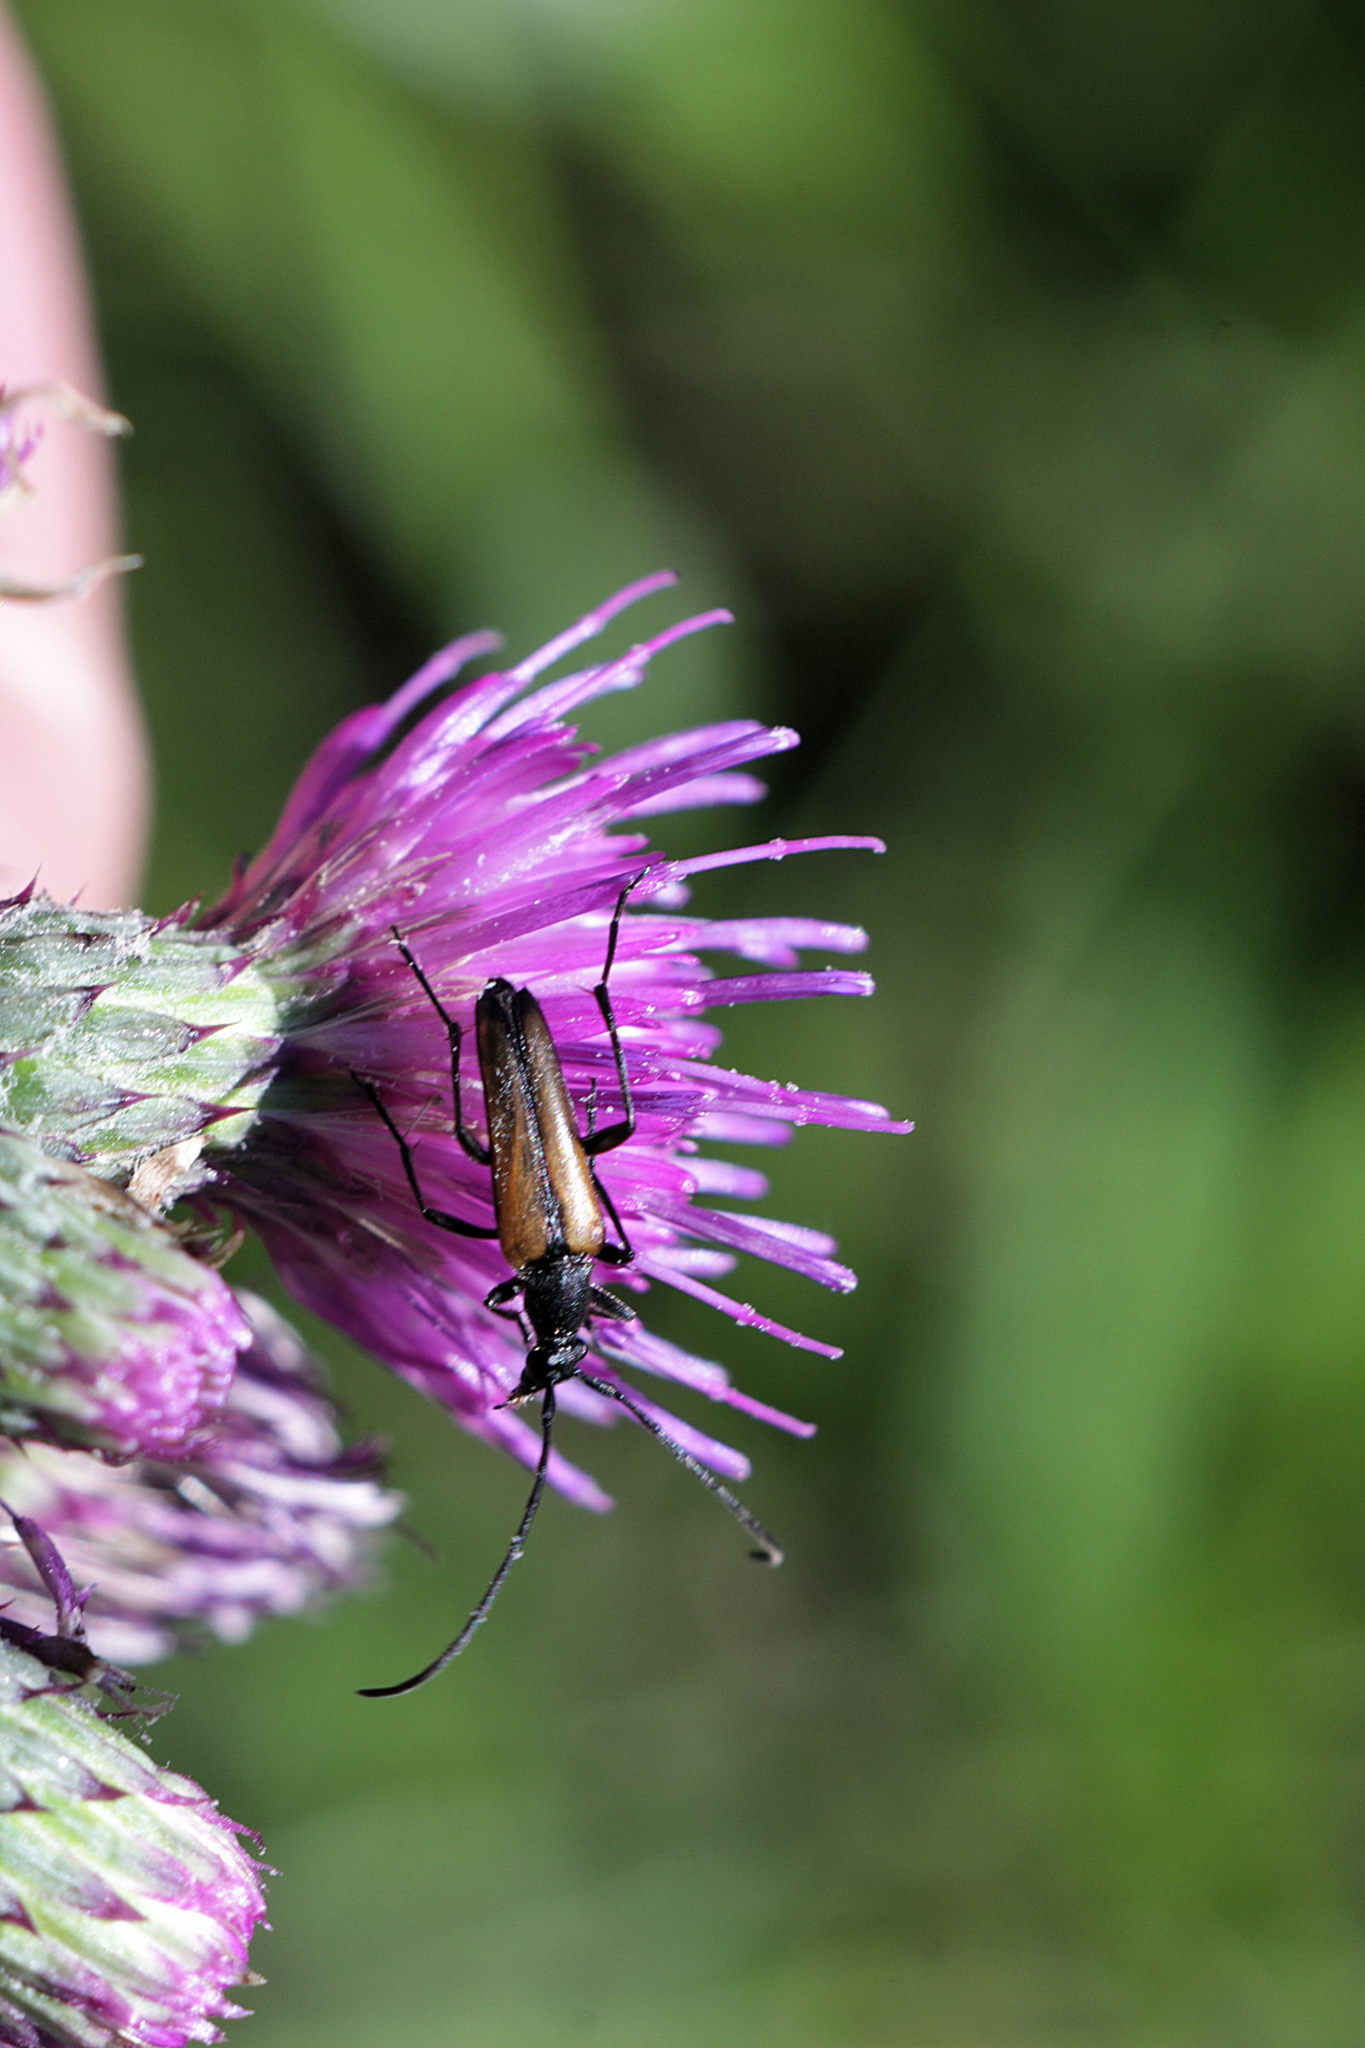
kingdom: Animalia
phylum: Arthropoda
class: Insecta
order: Coleoptera
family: Cerambycidae
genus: Stenurella
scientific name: Stenurella melanura
